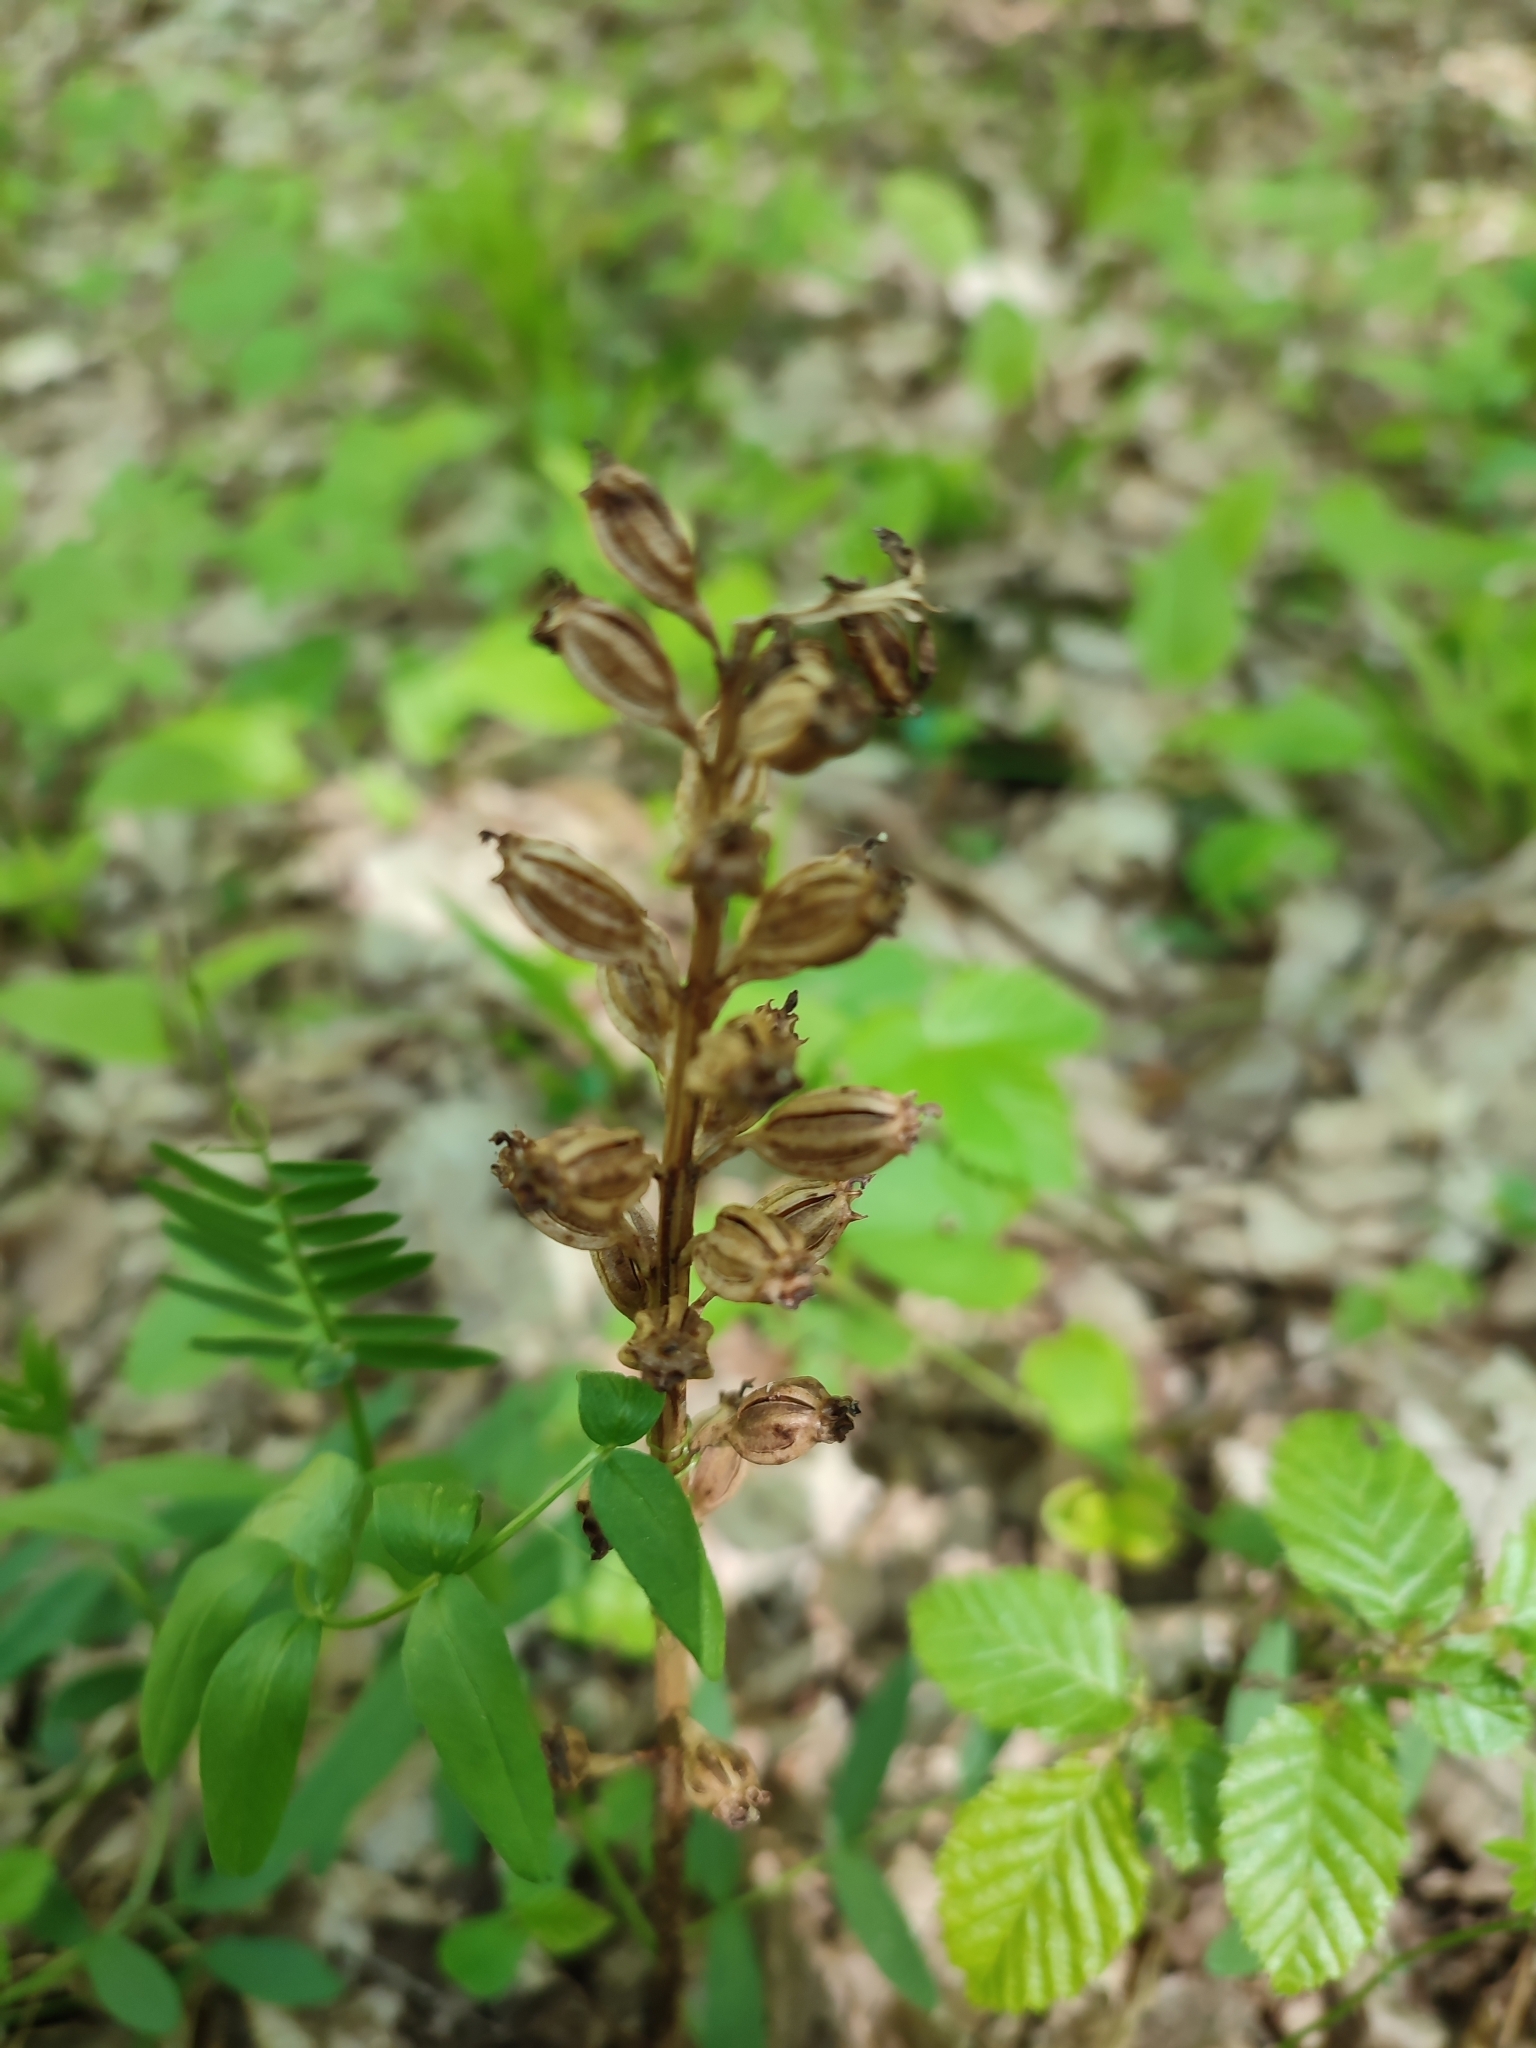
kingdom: Plantae
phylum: Tracheophyta
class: Liliopsida
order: Asparagales
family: Orchidaceae
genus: Neottia
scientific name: Neottia nidus-avis
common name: Bird's-nest orchid
